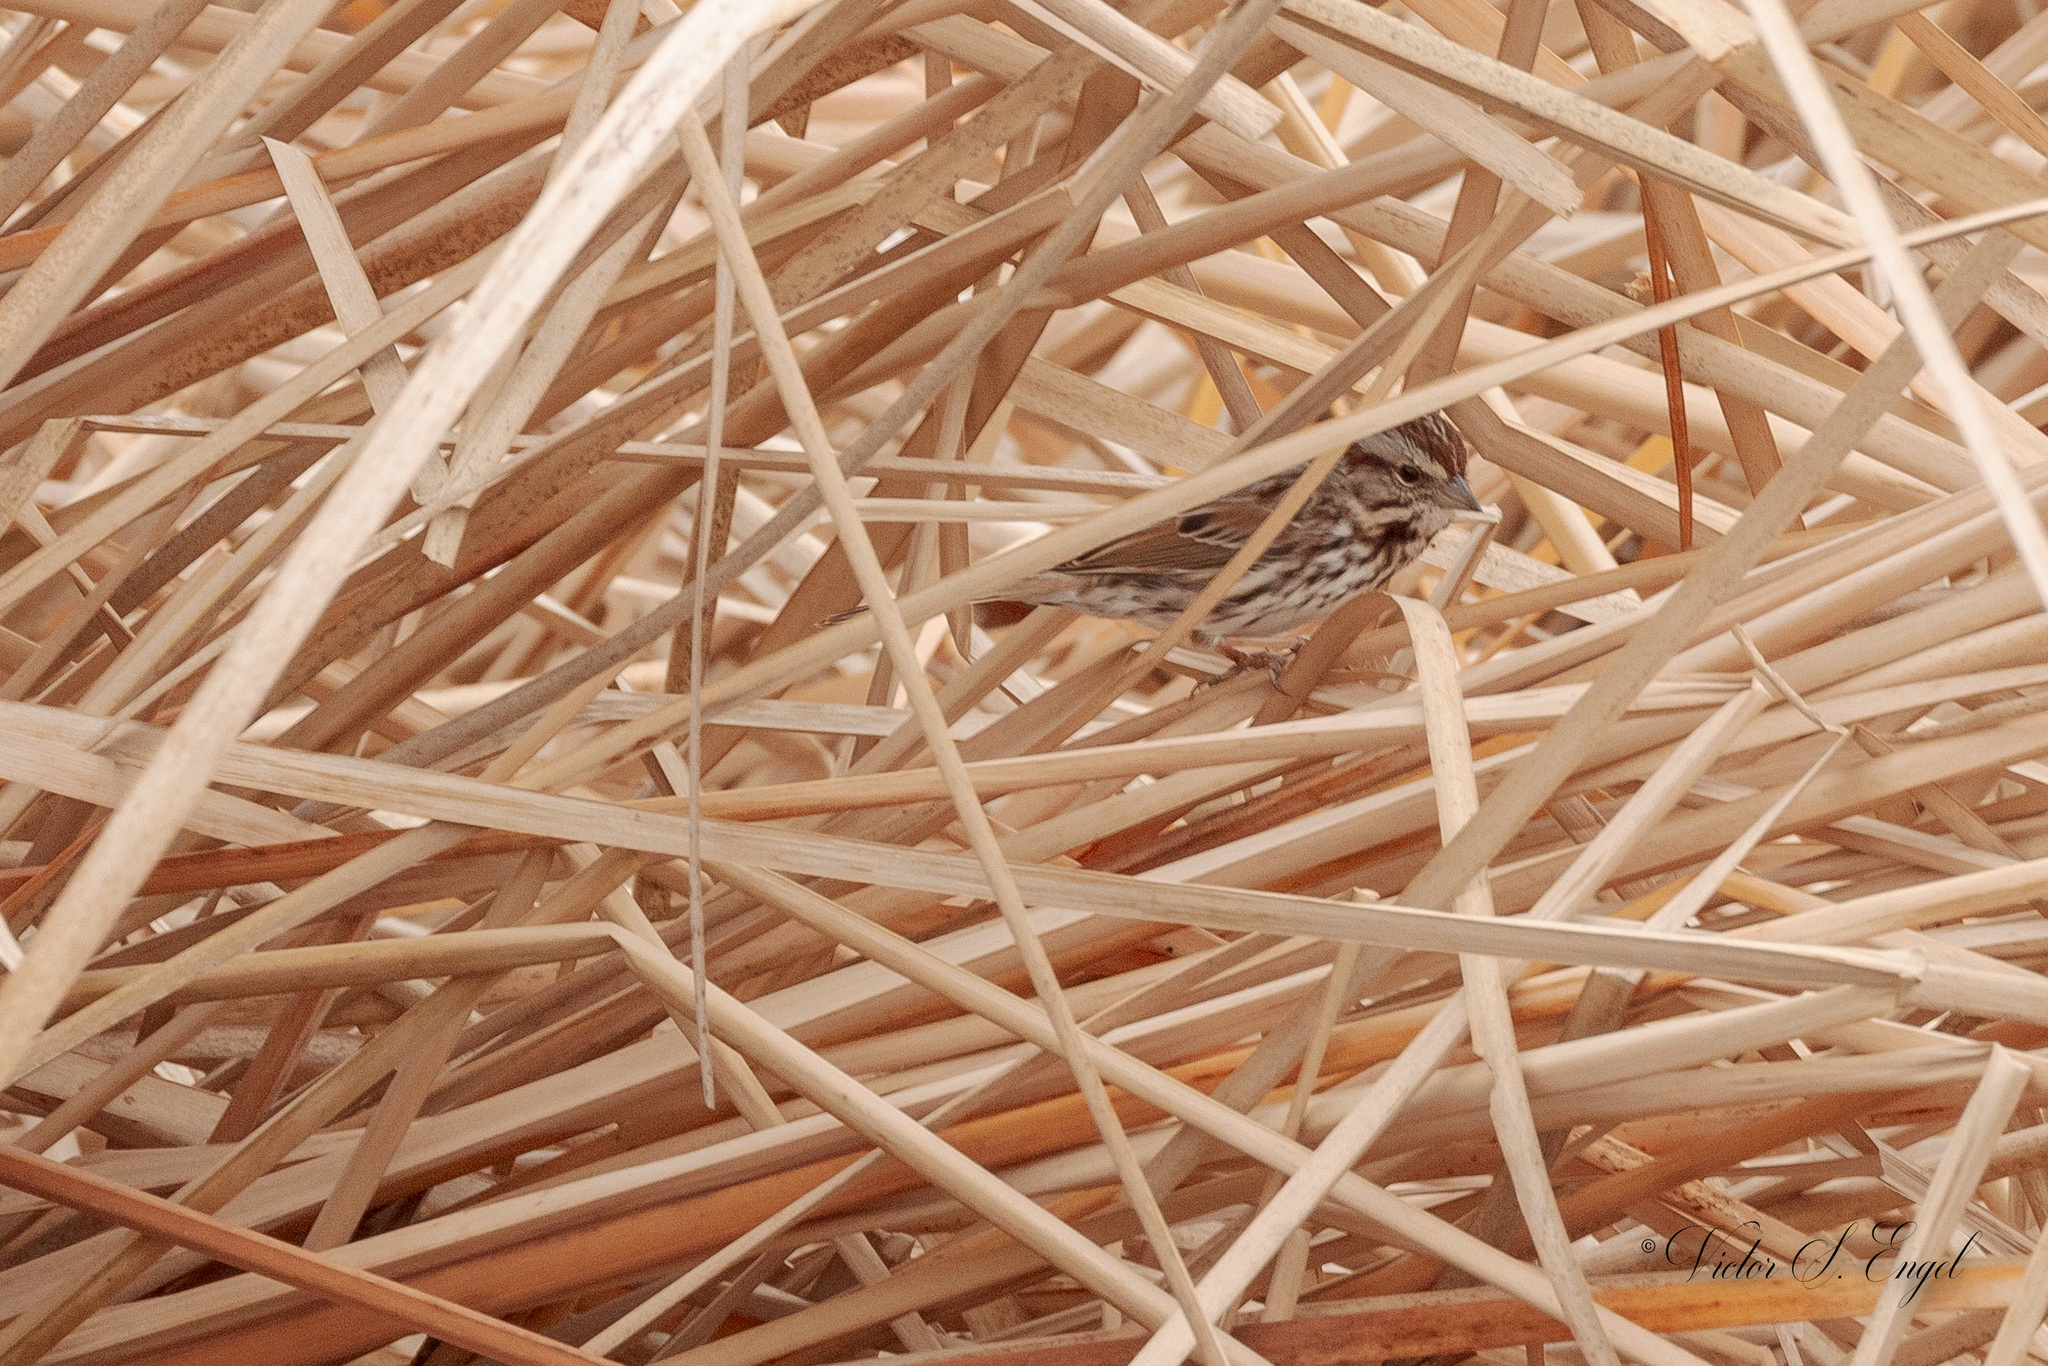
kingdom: Animalia
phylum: Chordata
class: Aves
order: Passeriformes
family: Passerellidae
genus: Melospiza
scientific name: Melospiza melodia
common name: Song sparrow
